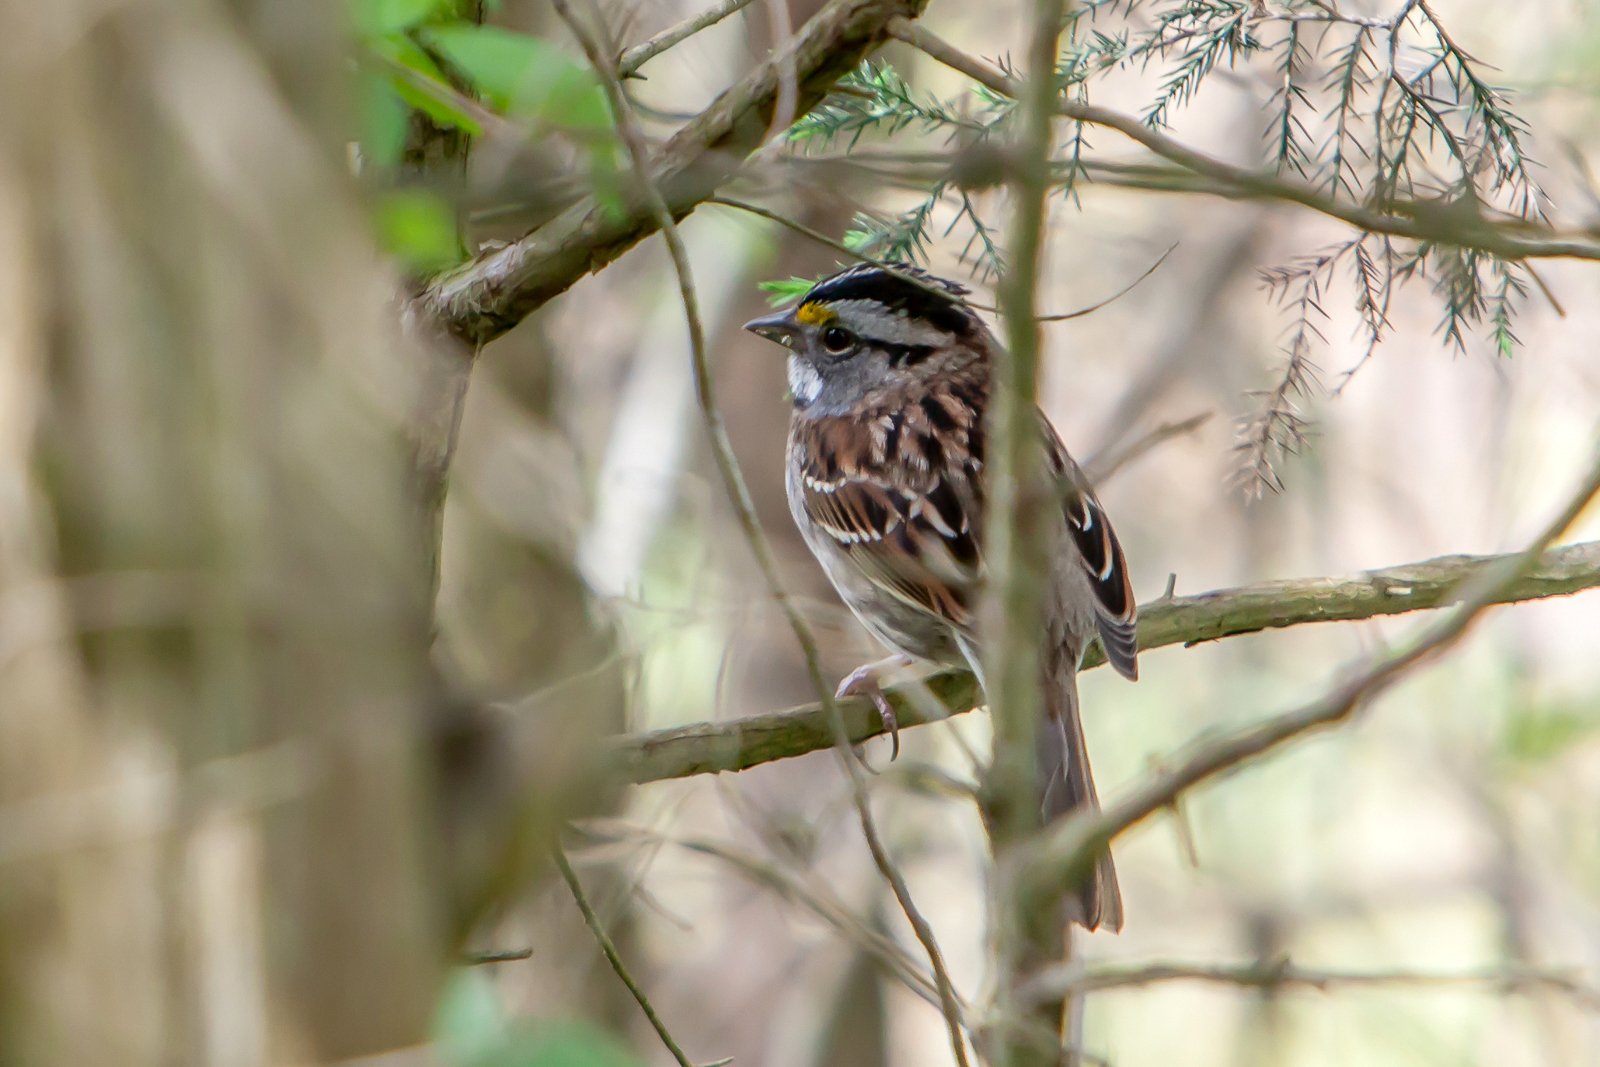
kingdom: Animalia
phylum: Chordata
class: Aves
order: Passeriformes
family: Passerellidae
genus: Zonotrichia
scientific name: Zonotrichia albicollis
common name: White-throated sparrow
